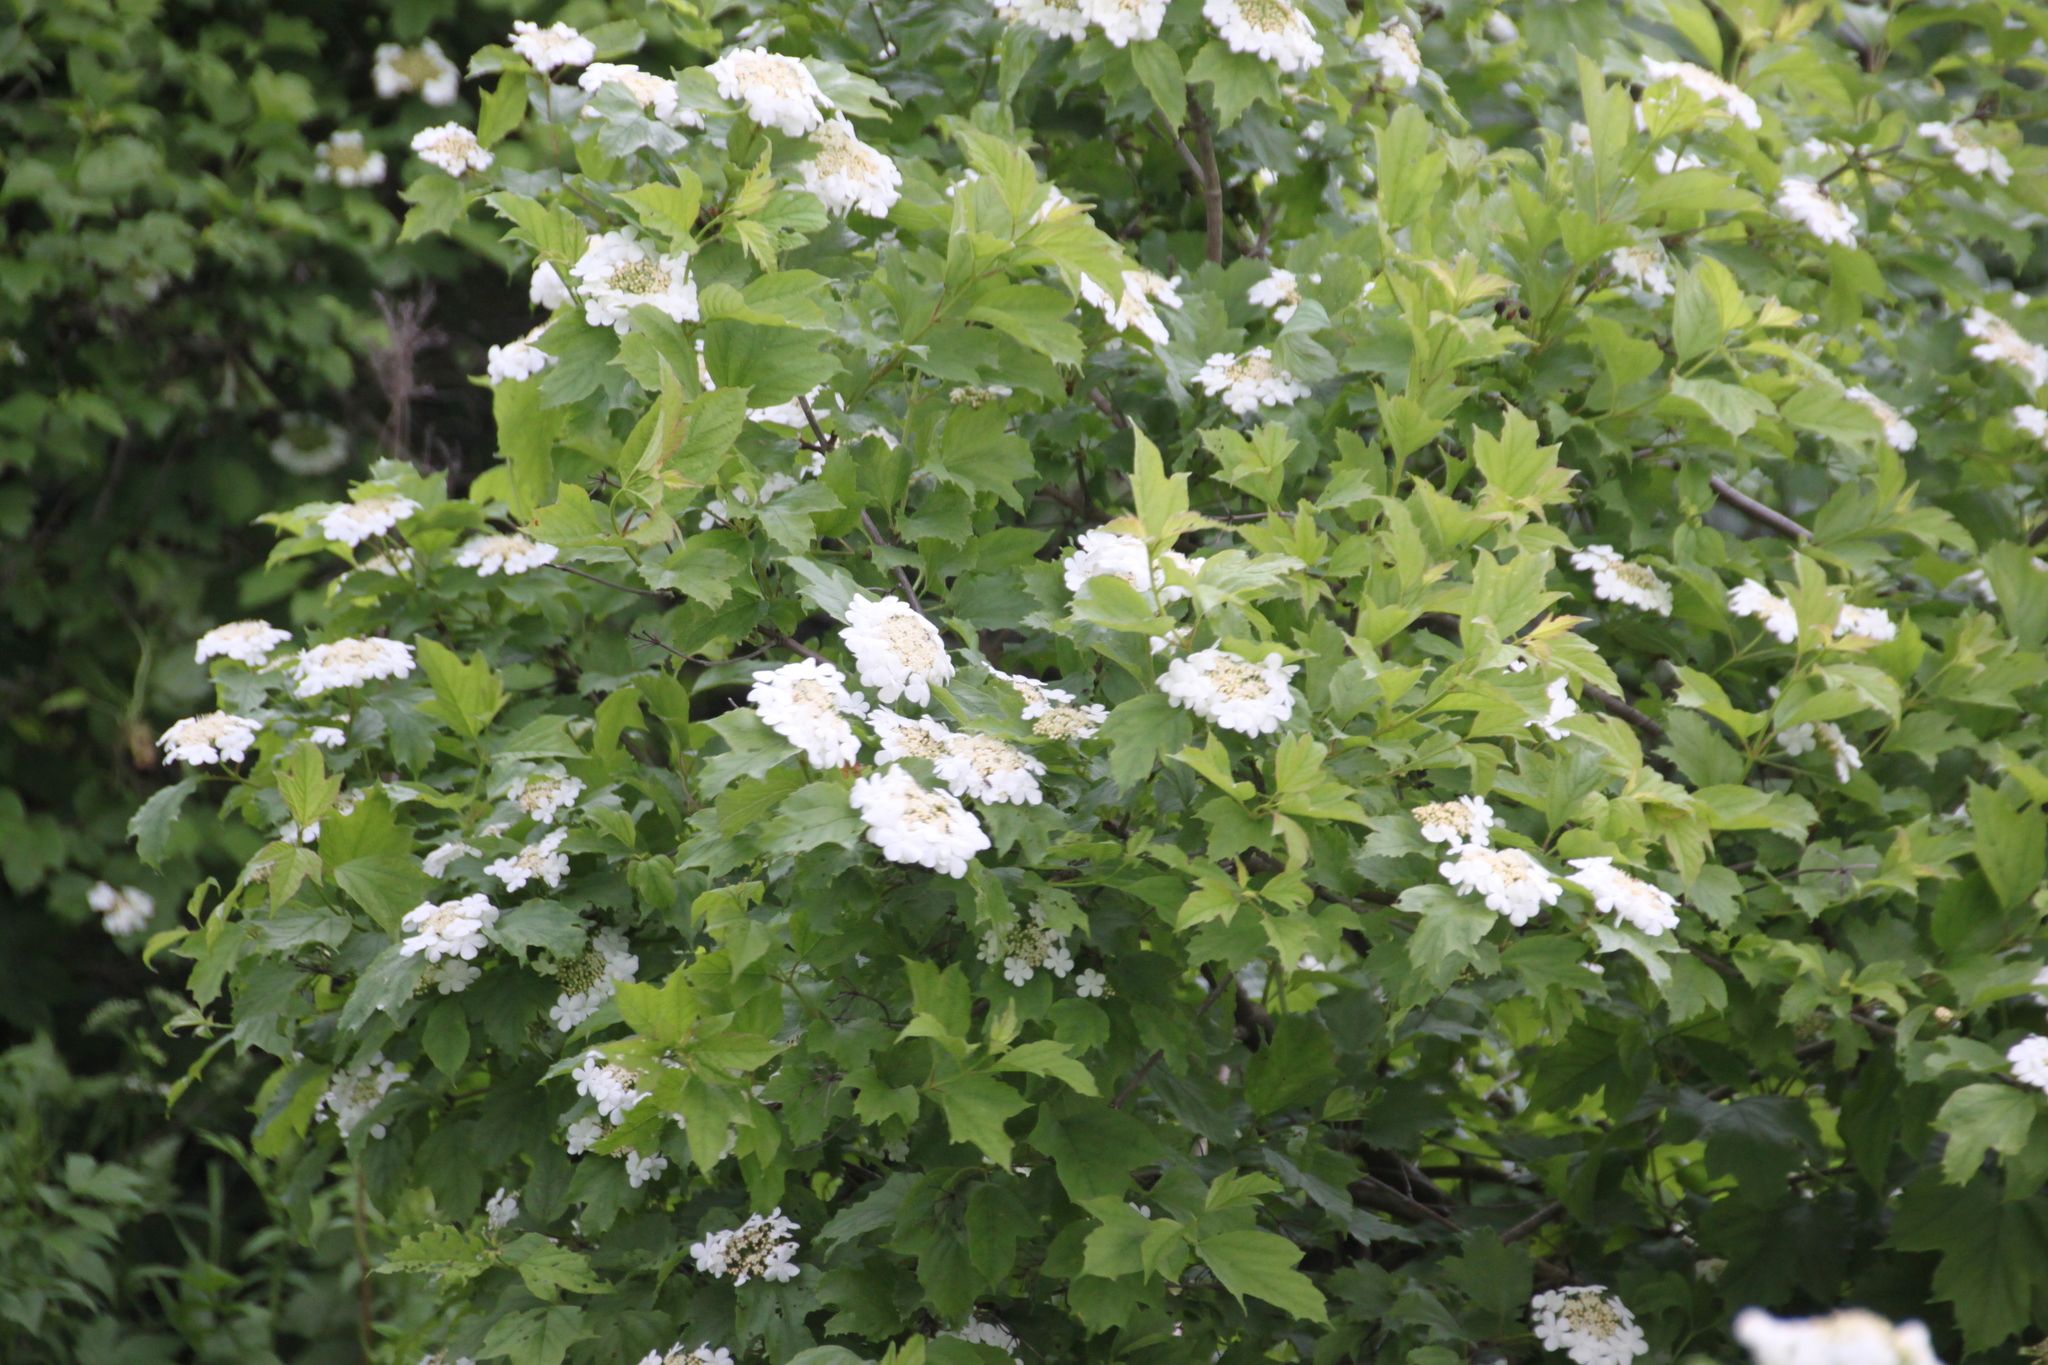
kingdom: Plantae
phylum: Tracheophyta
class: Magnoliopsida
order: Dipsacales
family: Viburnaceae
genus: Viburnum
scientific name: Viburnum opulus
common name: Guelder-rose
